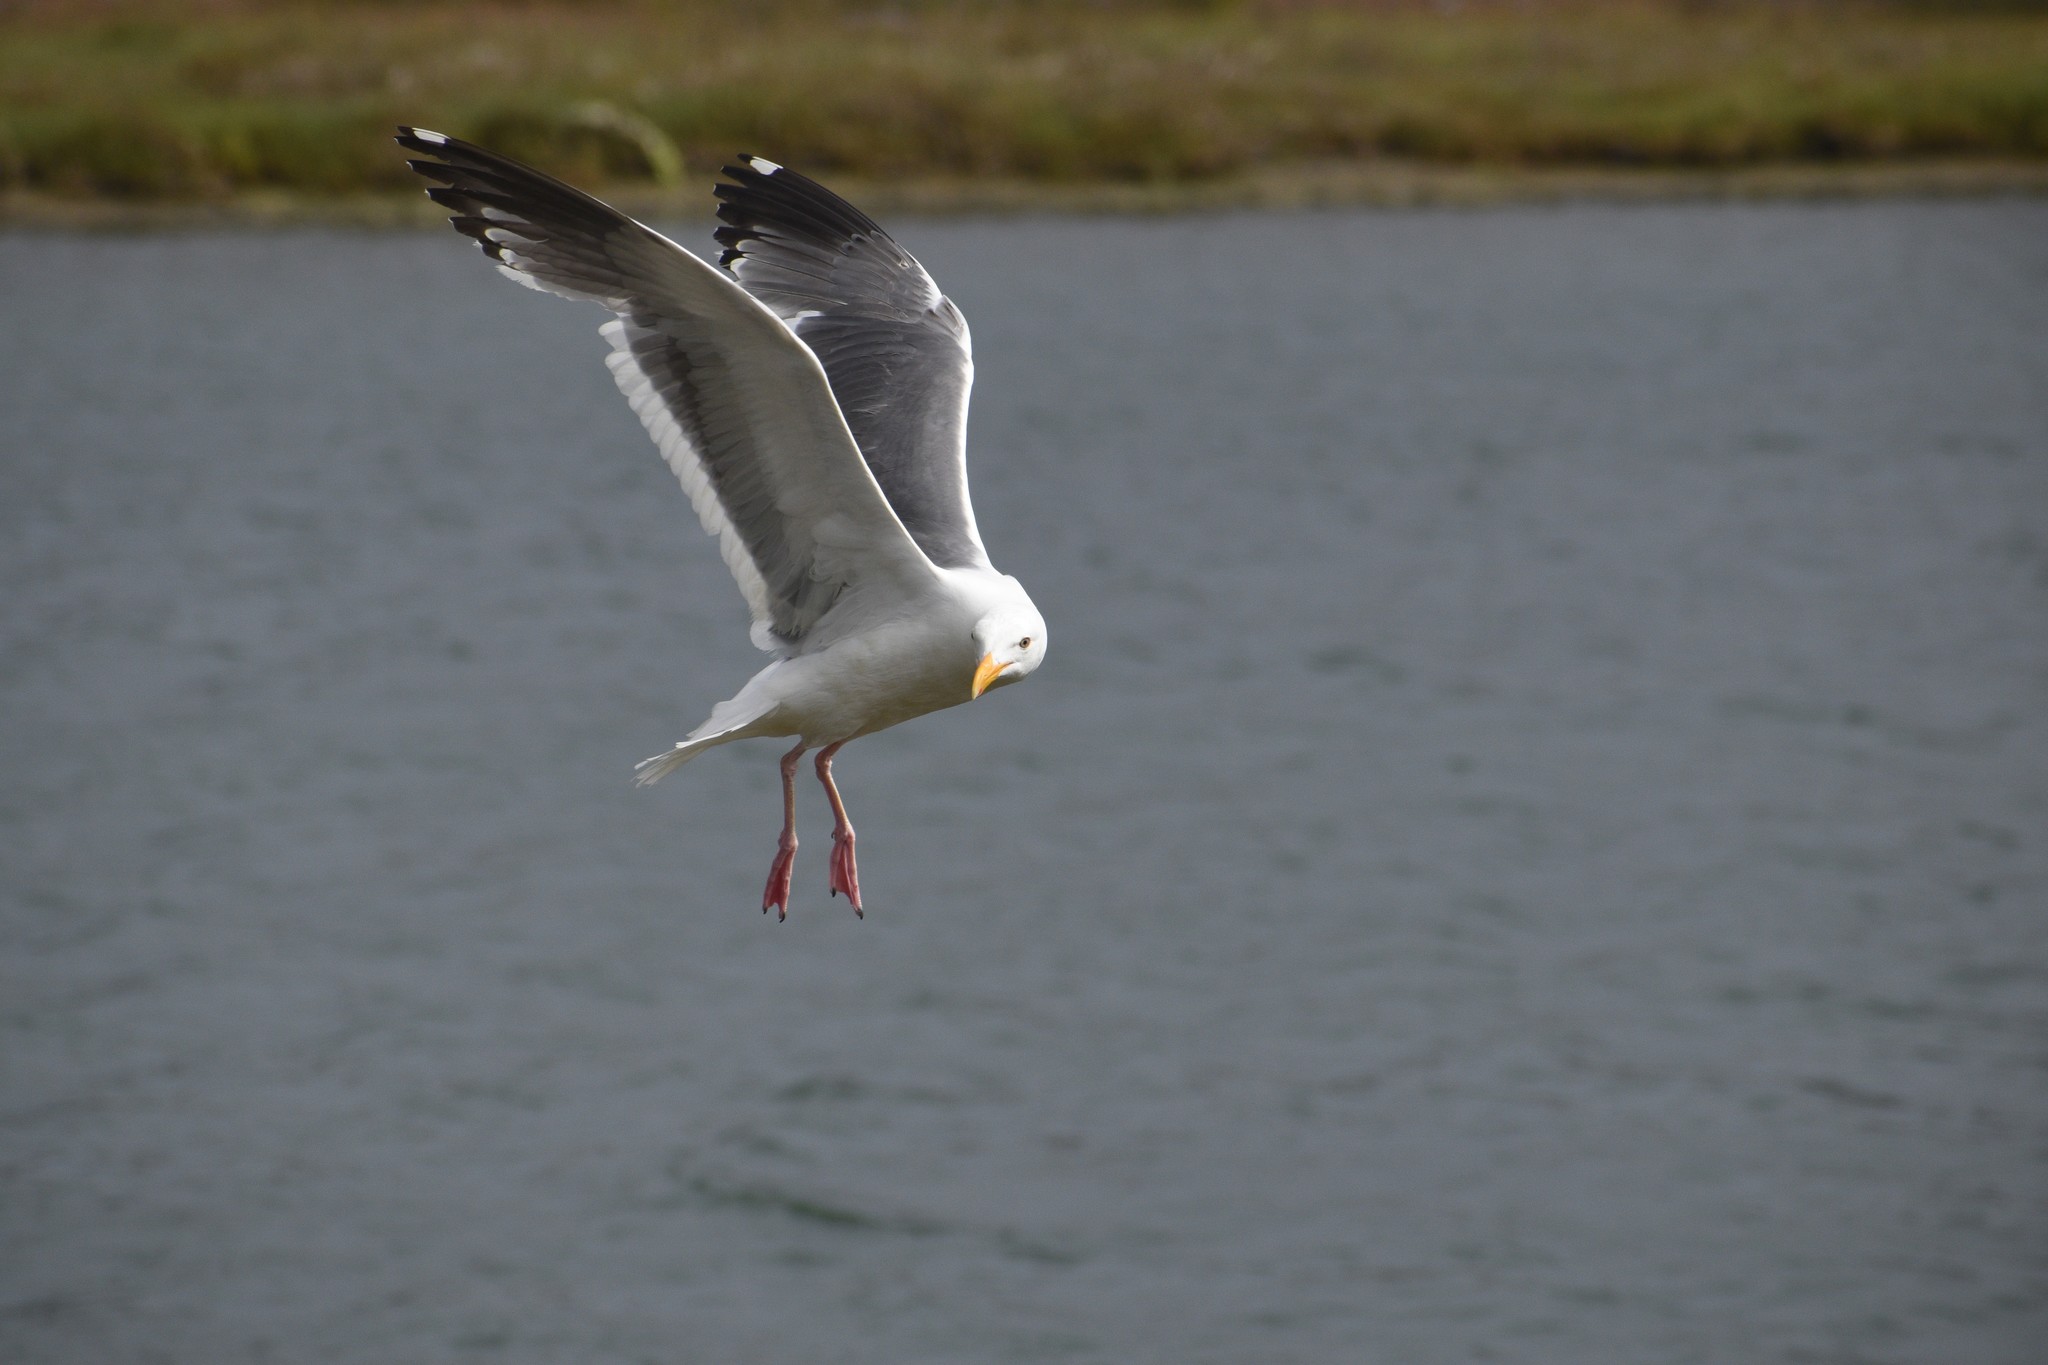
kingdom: Animalia
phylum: Chordata
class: Aves
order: Charadriiformes
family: Laridae
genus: Larus
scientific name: Larus occidentalis
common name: Western gull
